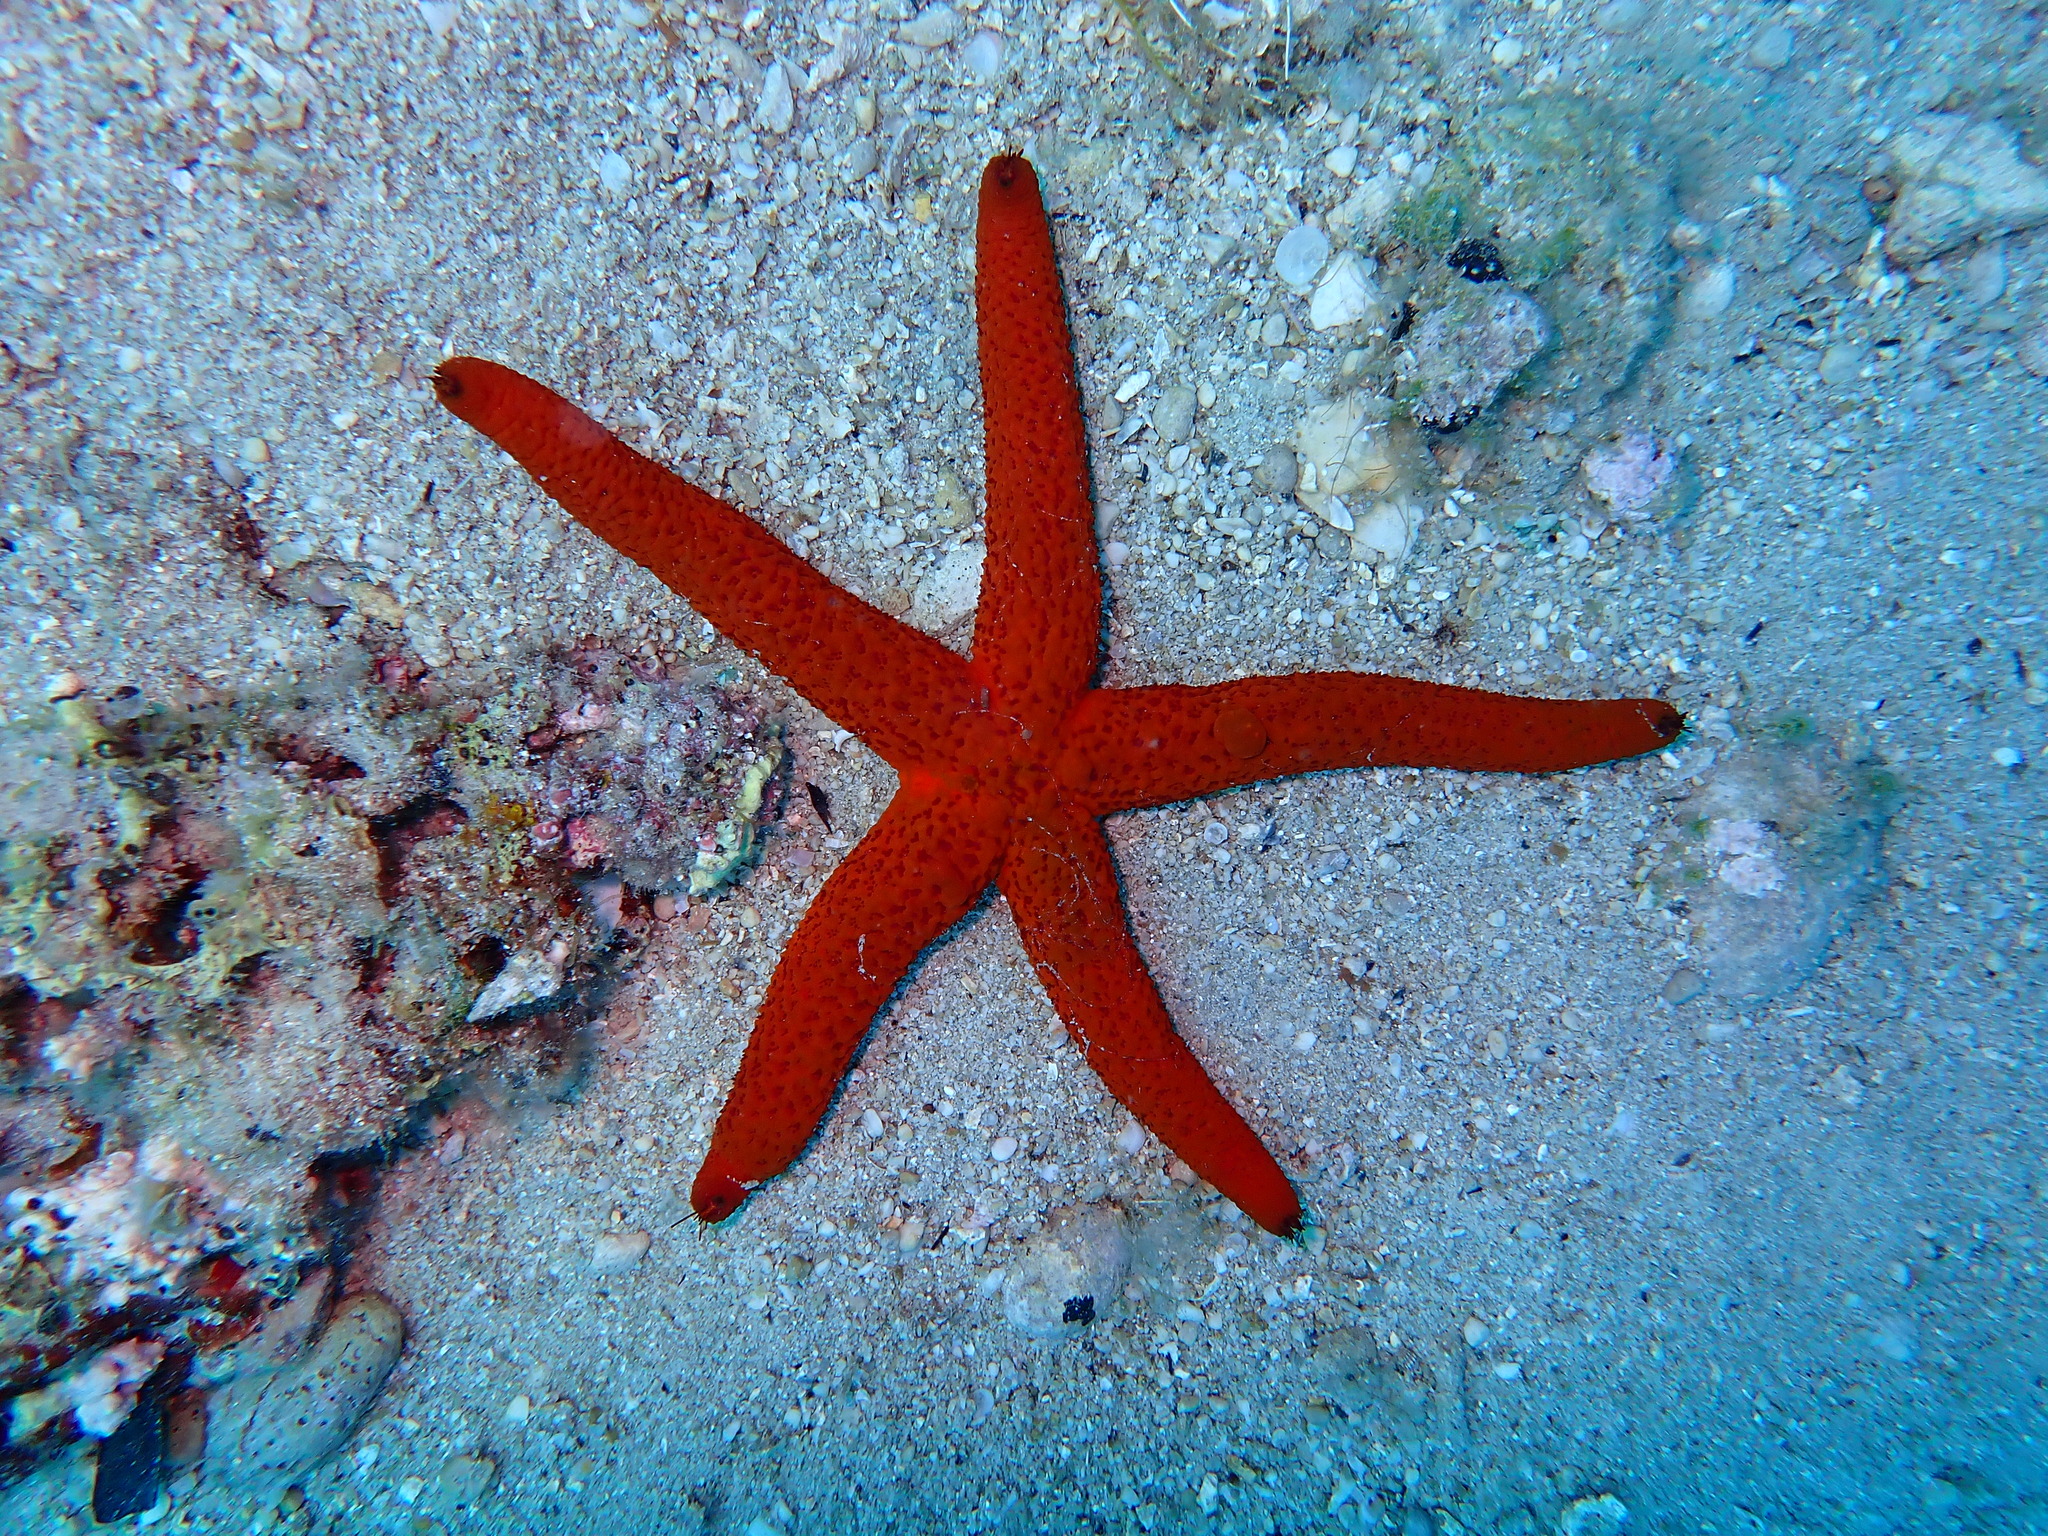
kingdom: Animalia
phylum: Echinodermata
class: Asteroidea
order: Spinulosida
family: Echinasteridae
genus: Echinaster
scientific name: Echinaster sepositus
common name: Red starfish
